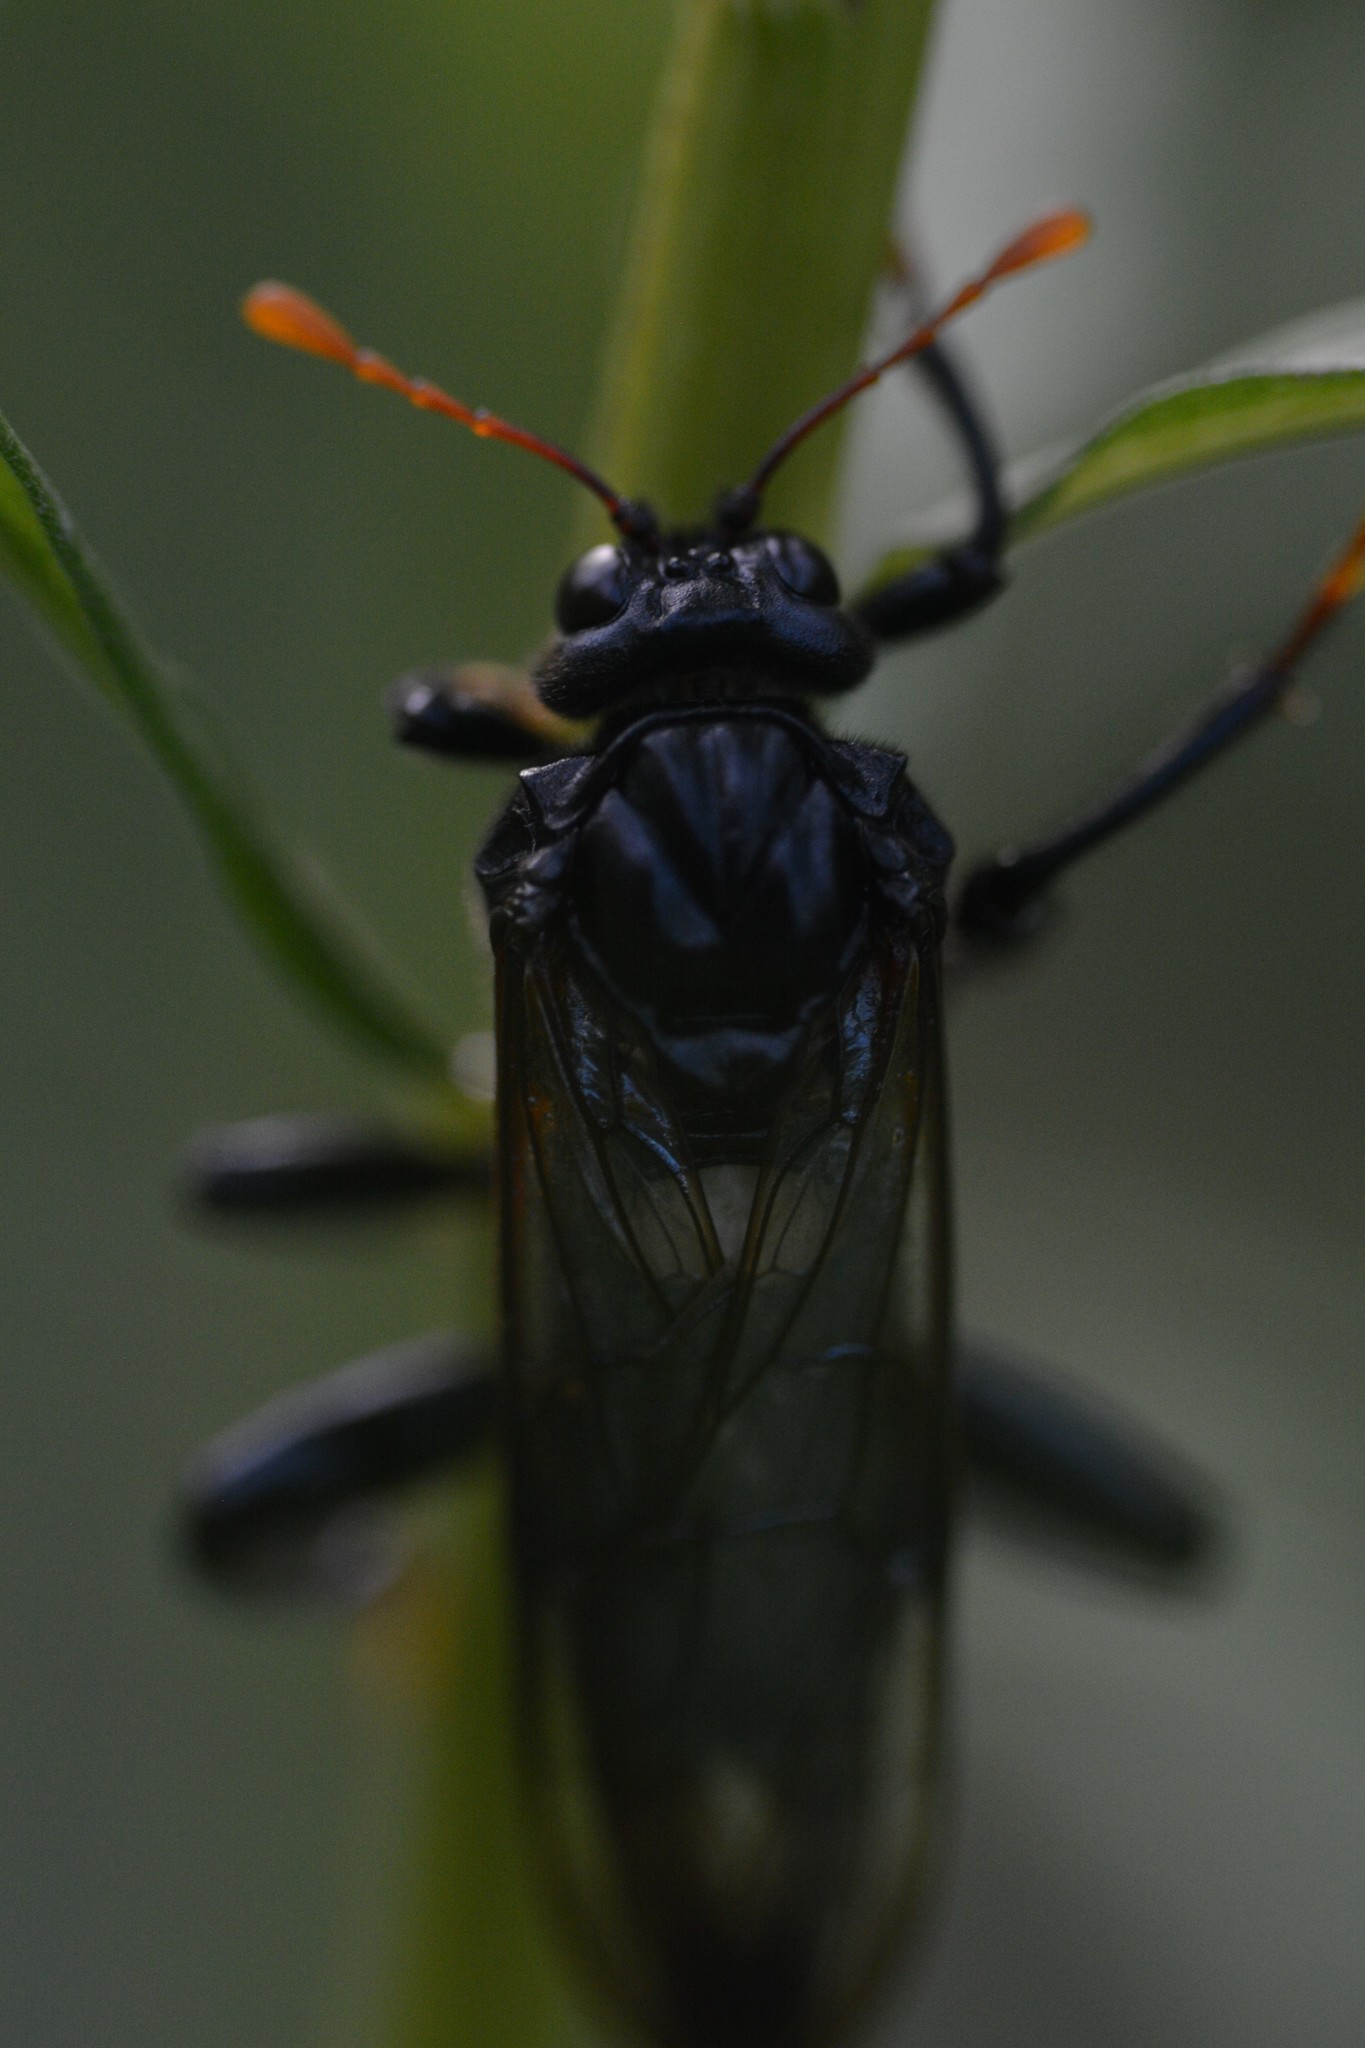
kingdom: Animalia
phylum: Arthropoda
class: Insecta
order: Hymenoptera
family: Cimbicidae
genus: Cimbex
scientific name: Cimbex americana
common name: Elm sawfly
